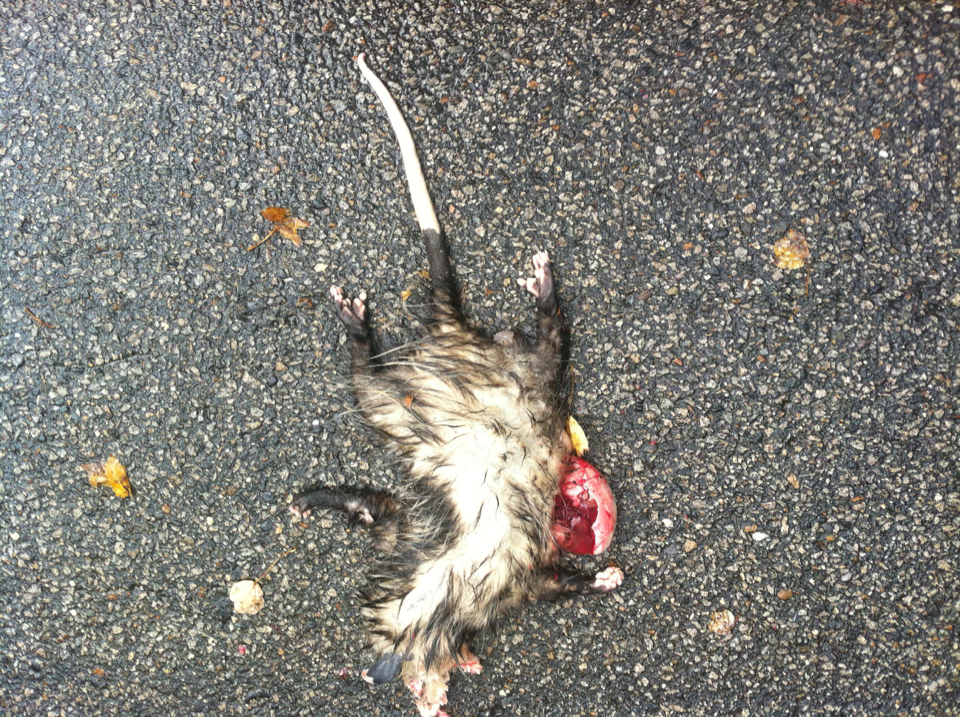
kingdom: Animalia
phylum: Chordata
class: Mammalia
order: Didelphimorphia
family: Didelphidae
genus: Didelphis
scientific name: Didelphis virginiana
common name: Virginia opossum
